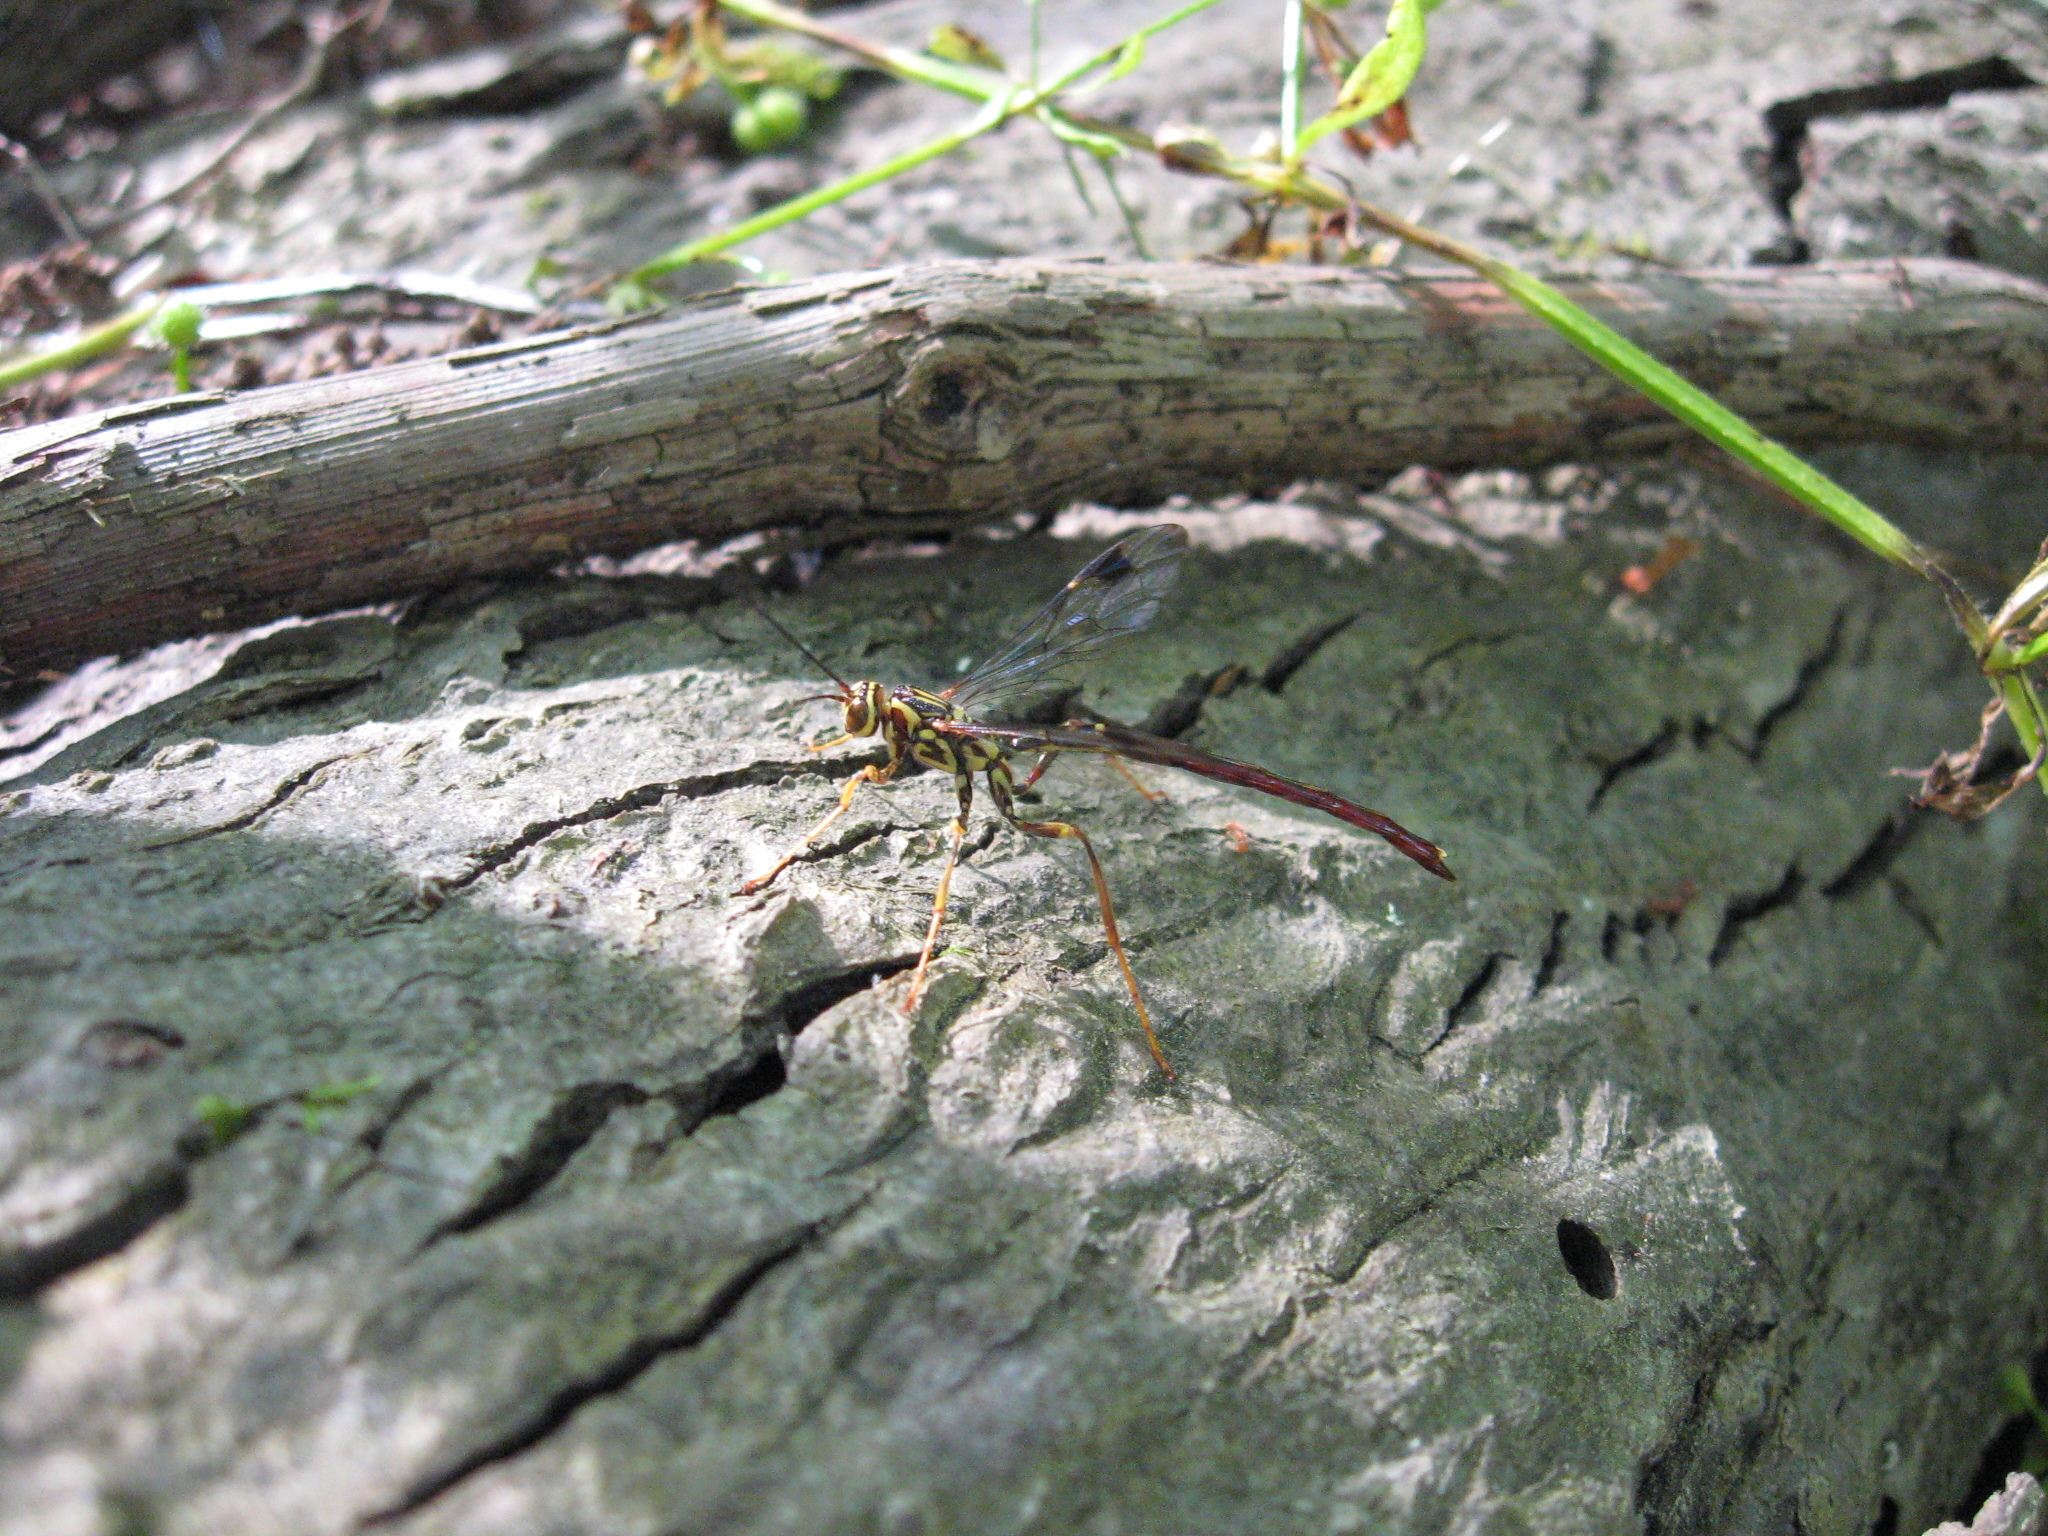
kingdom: Animalia
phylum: Arthropoda
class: Insecta
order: Hymenoptera
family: Ichneumonidae
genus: Megarhyssa
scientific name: Megarhyssa macrura
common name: Long-tailed giant ichneumonid wasp
